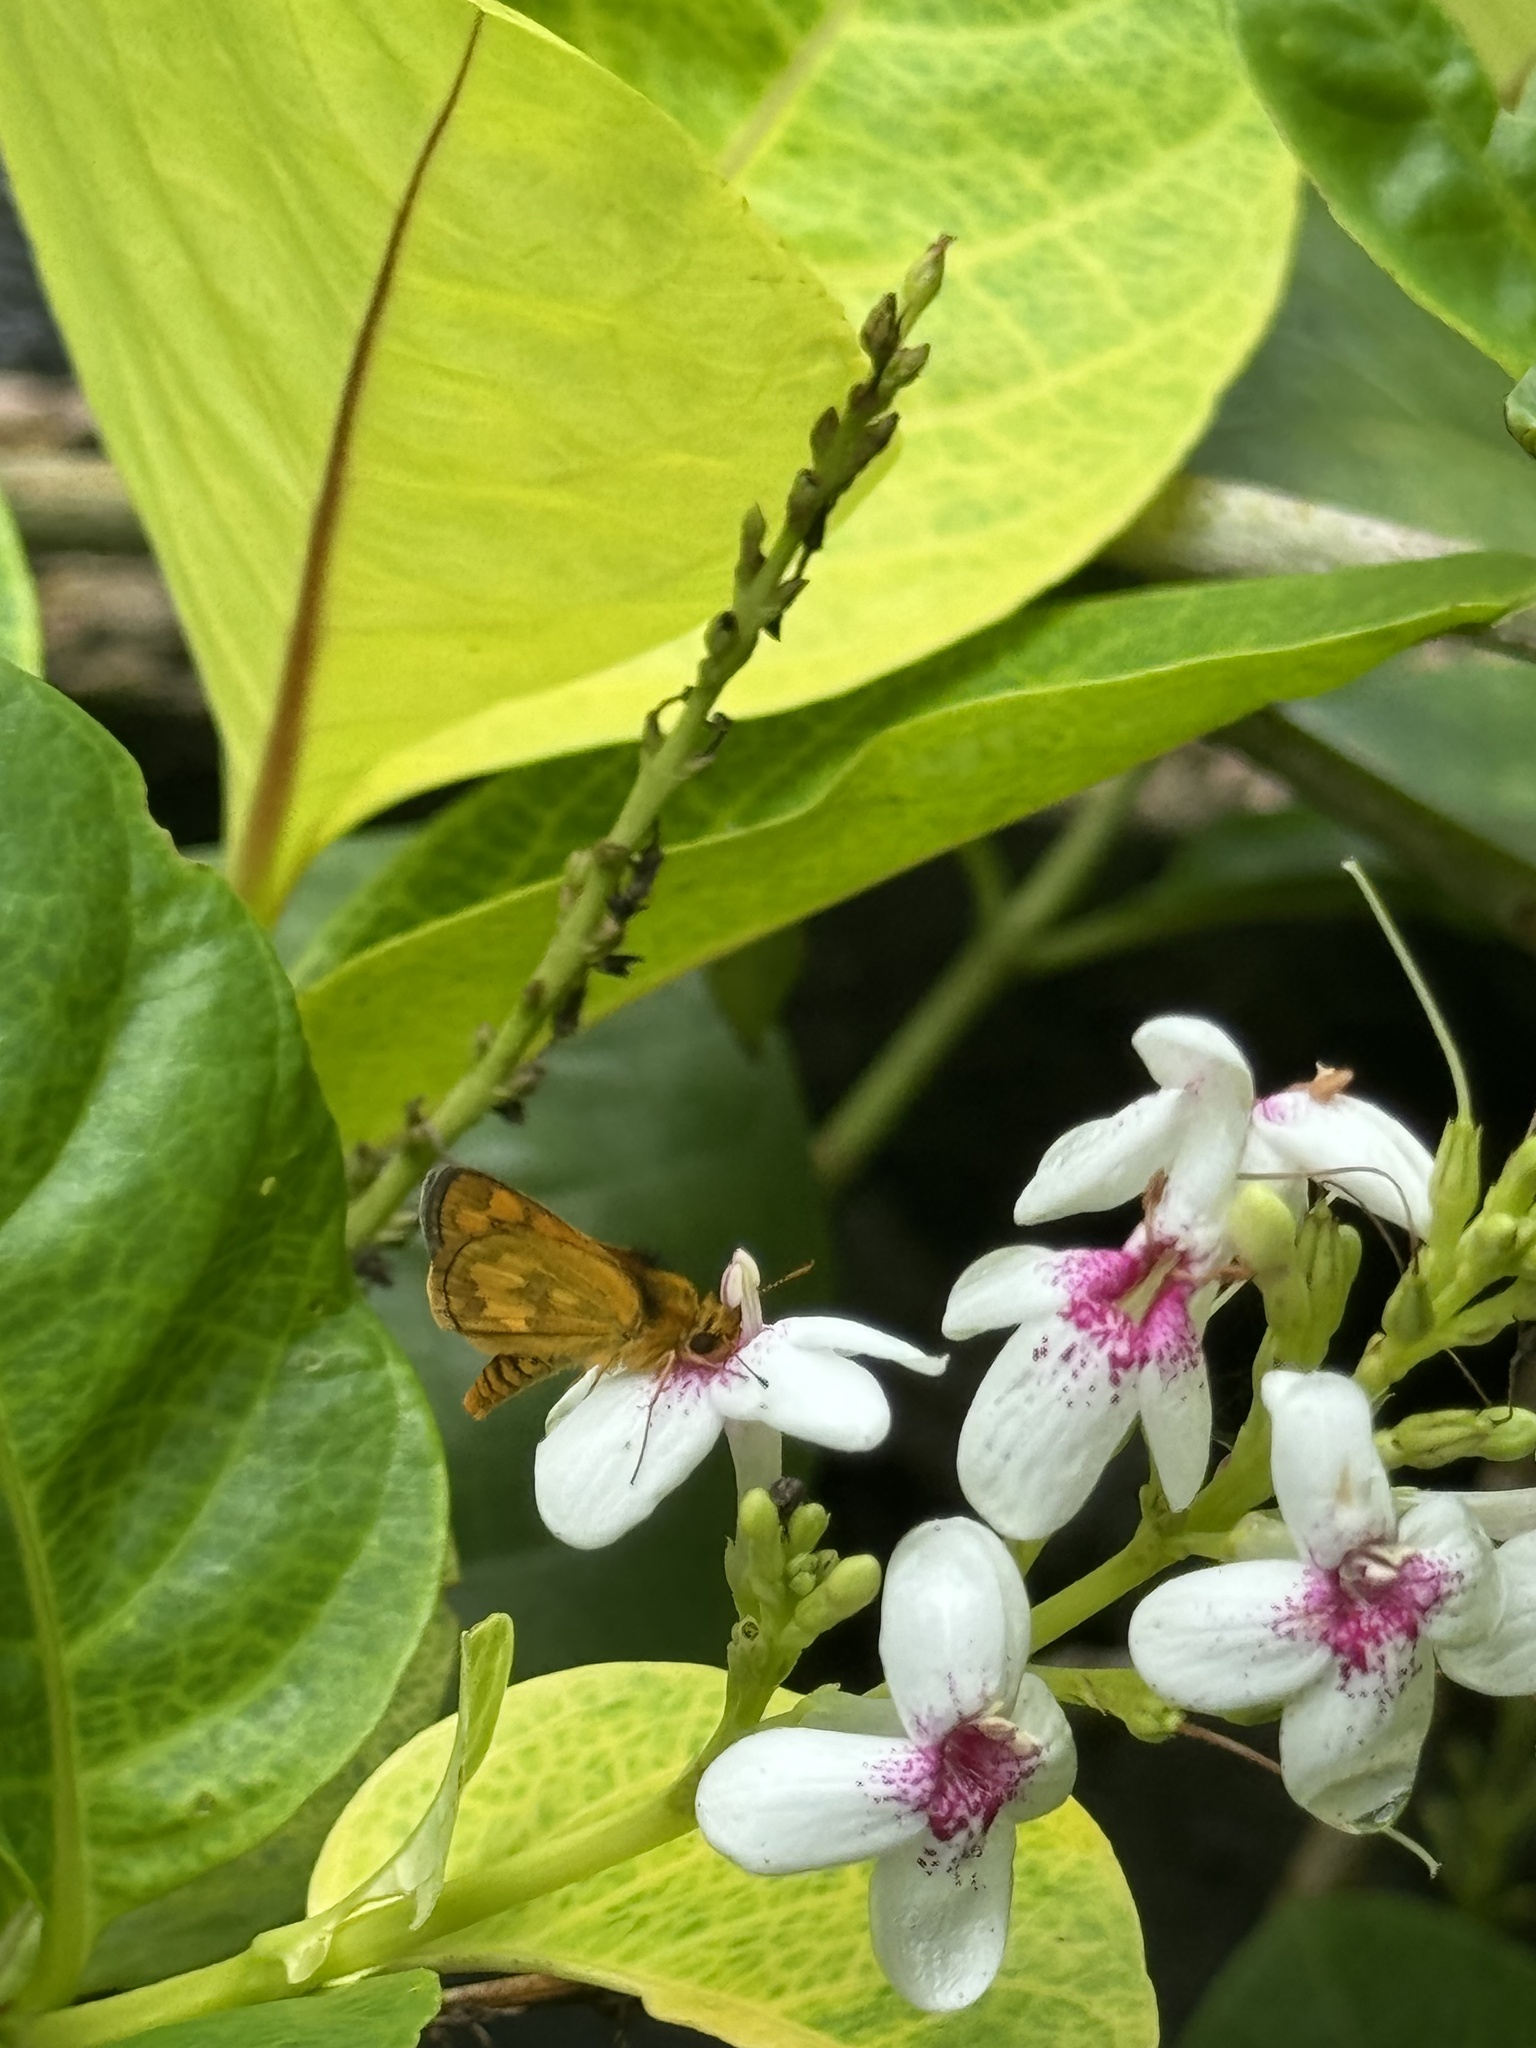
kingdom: Animalia
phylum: Arthropoda
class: Insecta
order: Lepidoptera
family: Hesperiidae
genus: Taractrocera
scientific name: Taractrocera
